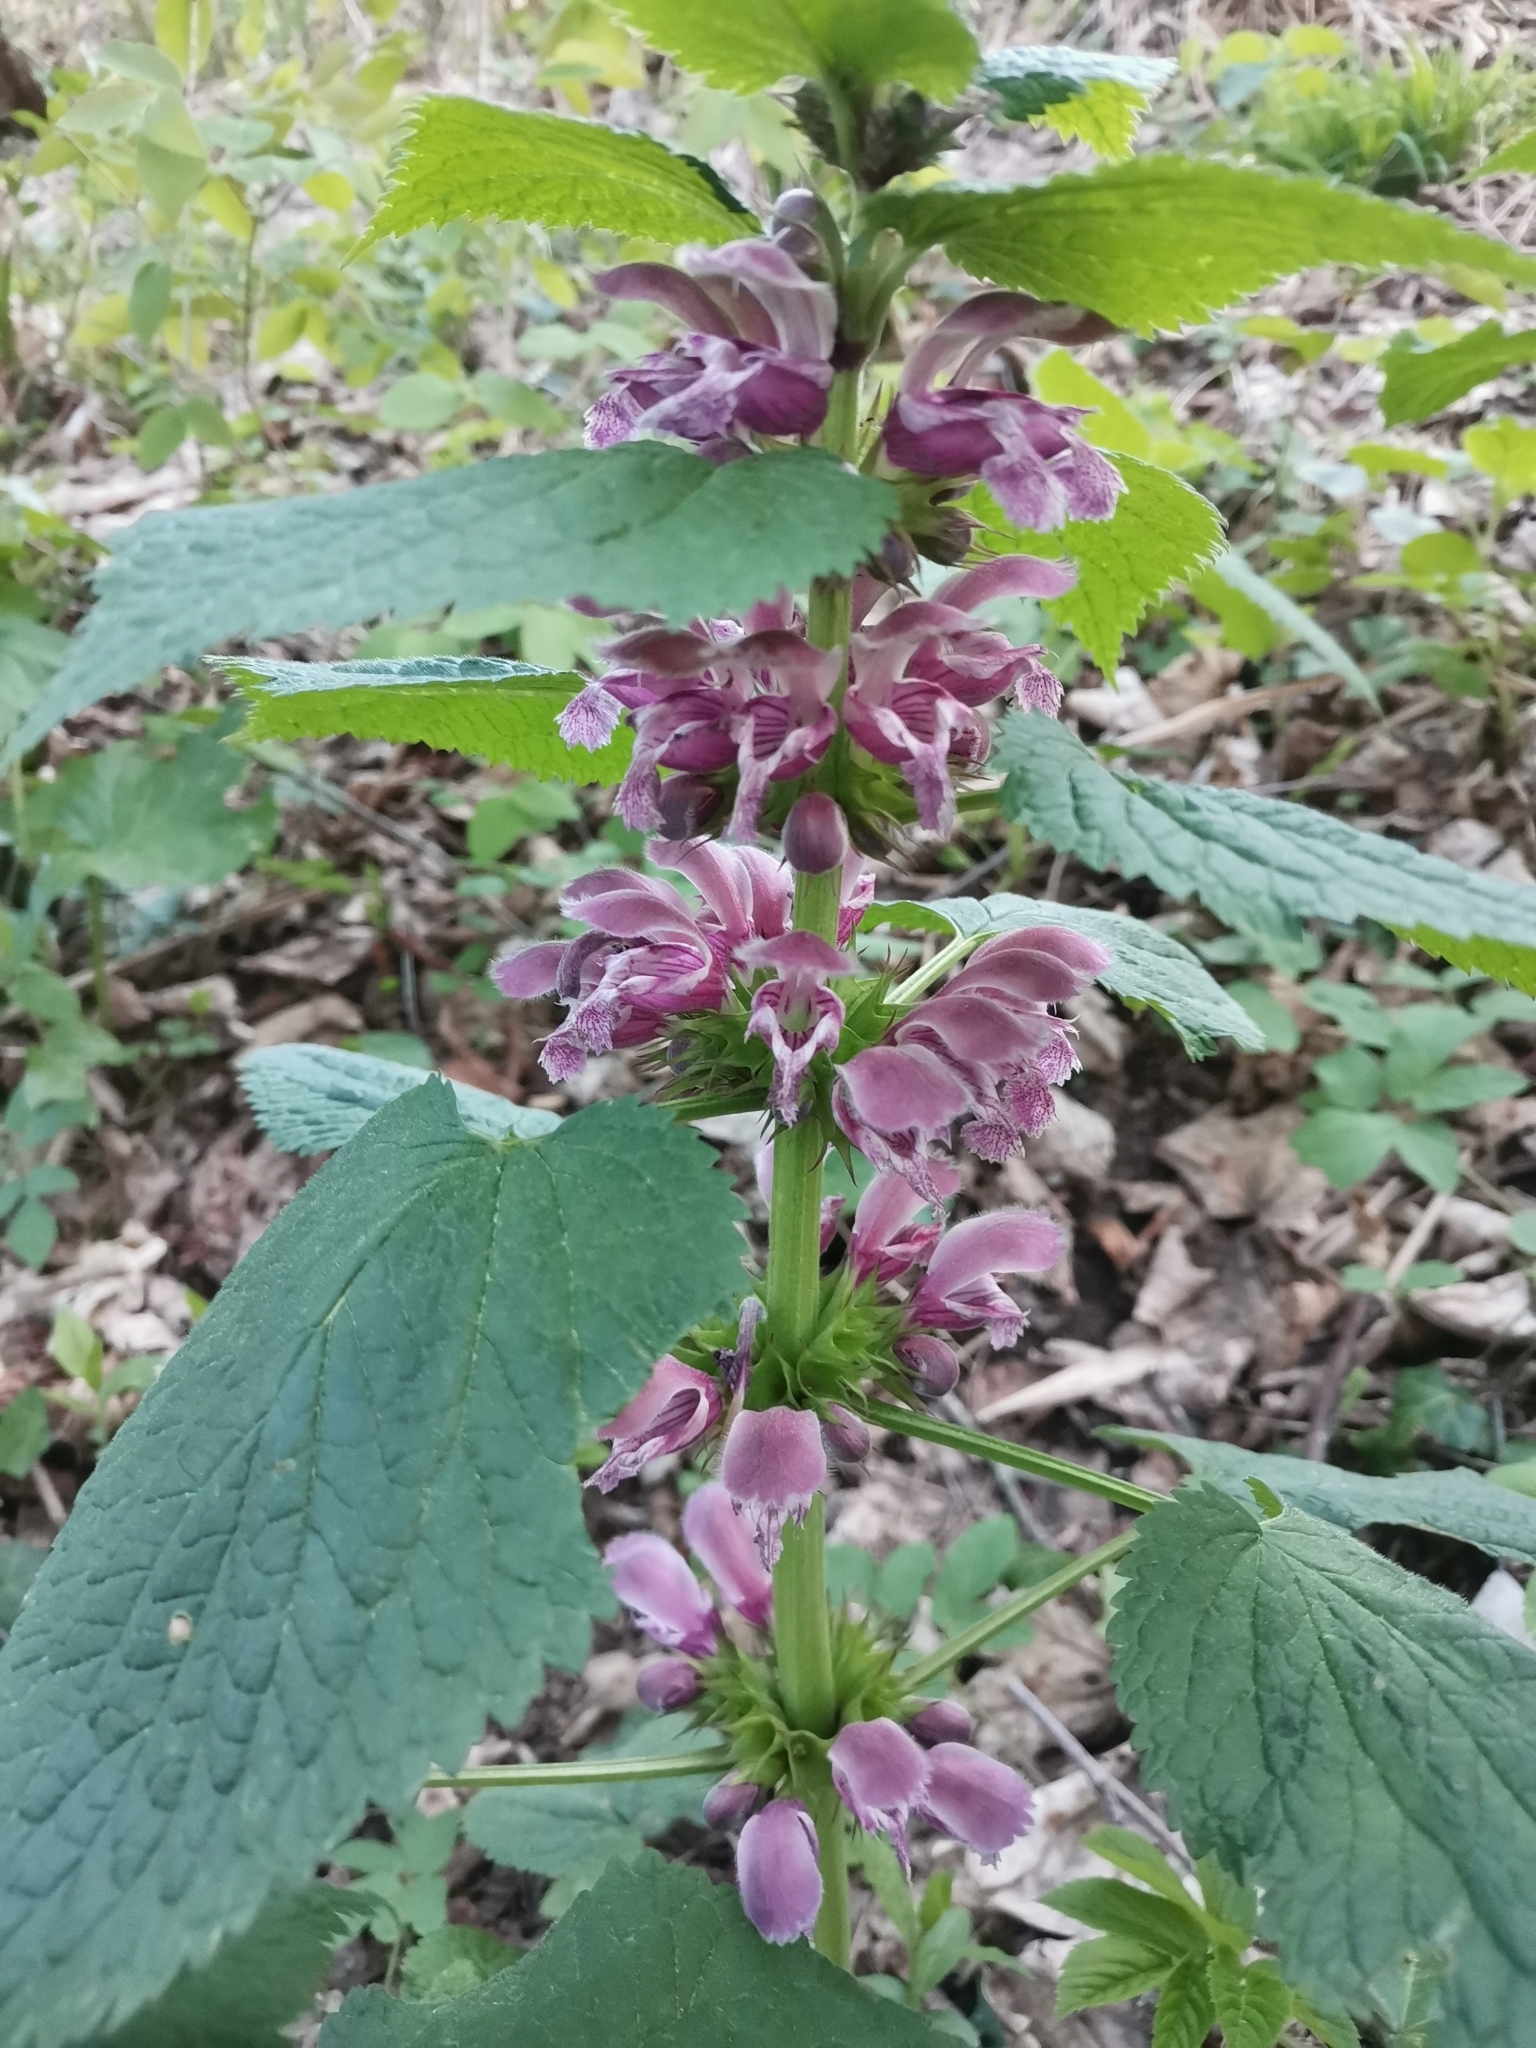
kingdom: Plantae
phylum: Tracheophyta
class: Magnoliopsida
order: Lamiales
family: Lamiaceae
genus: Lamium
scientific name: Lamium orvala
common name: Balm-leaved archangel
